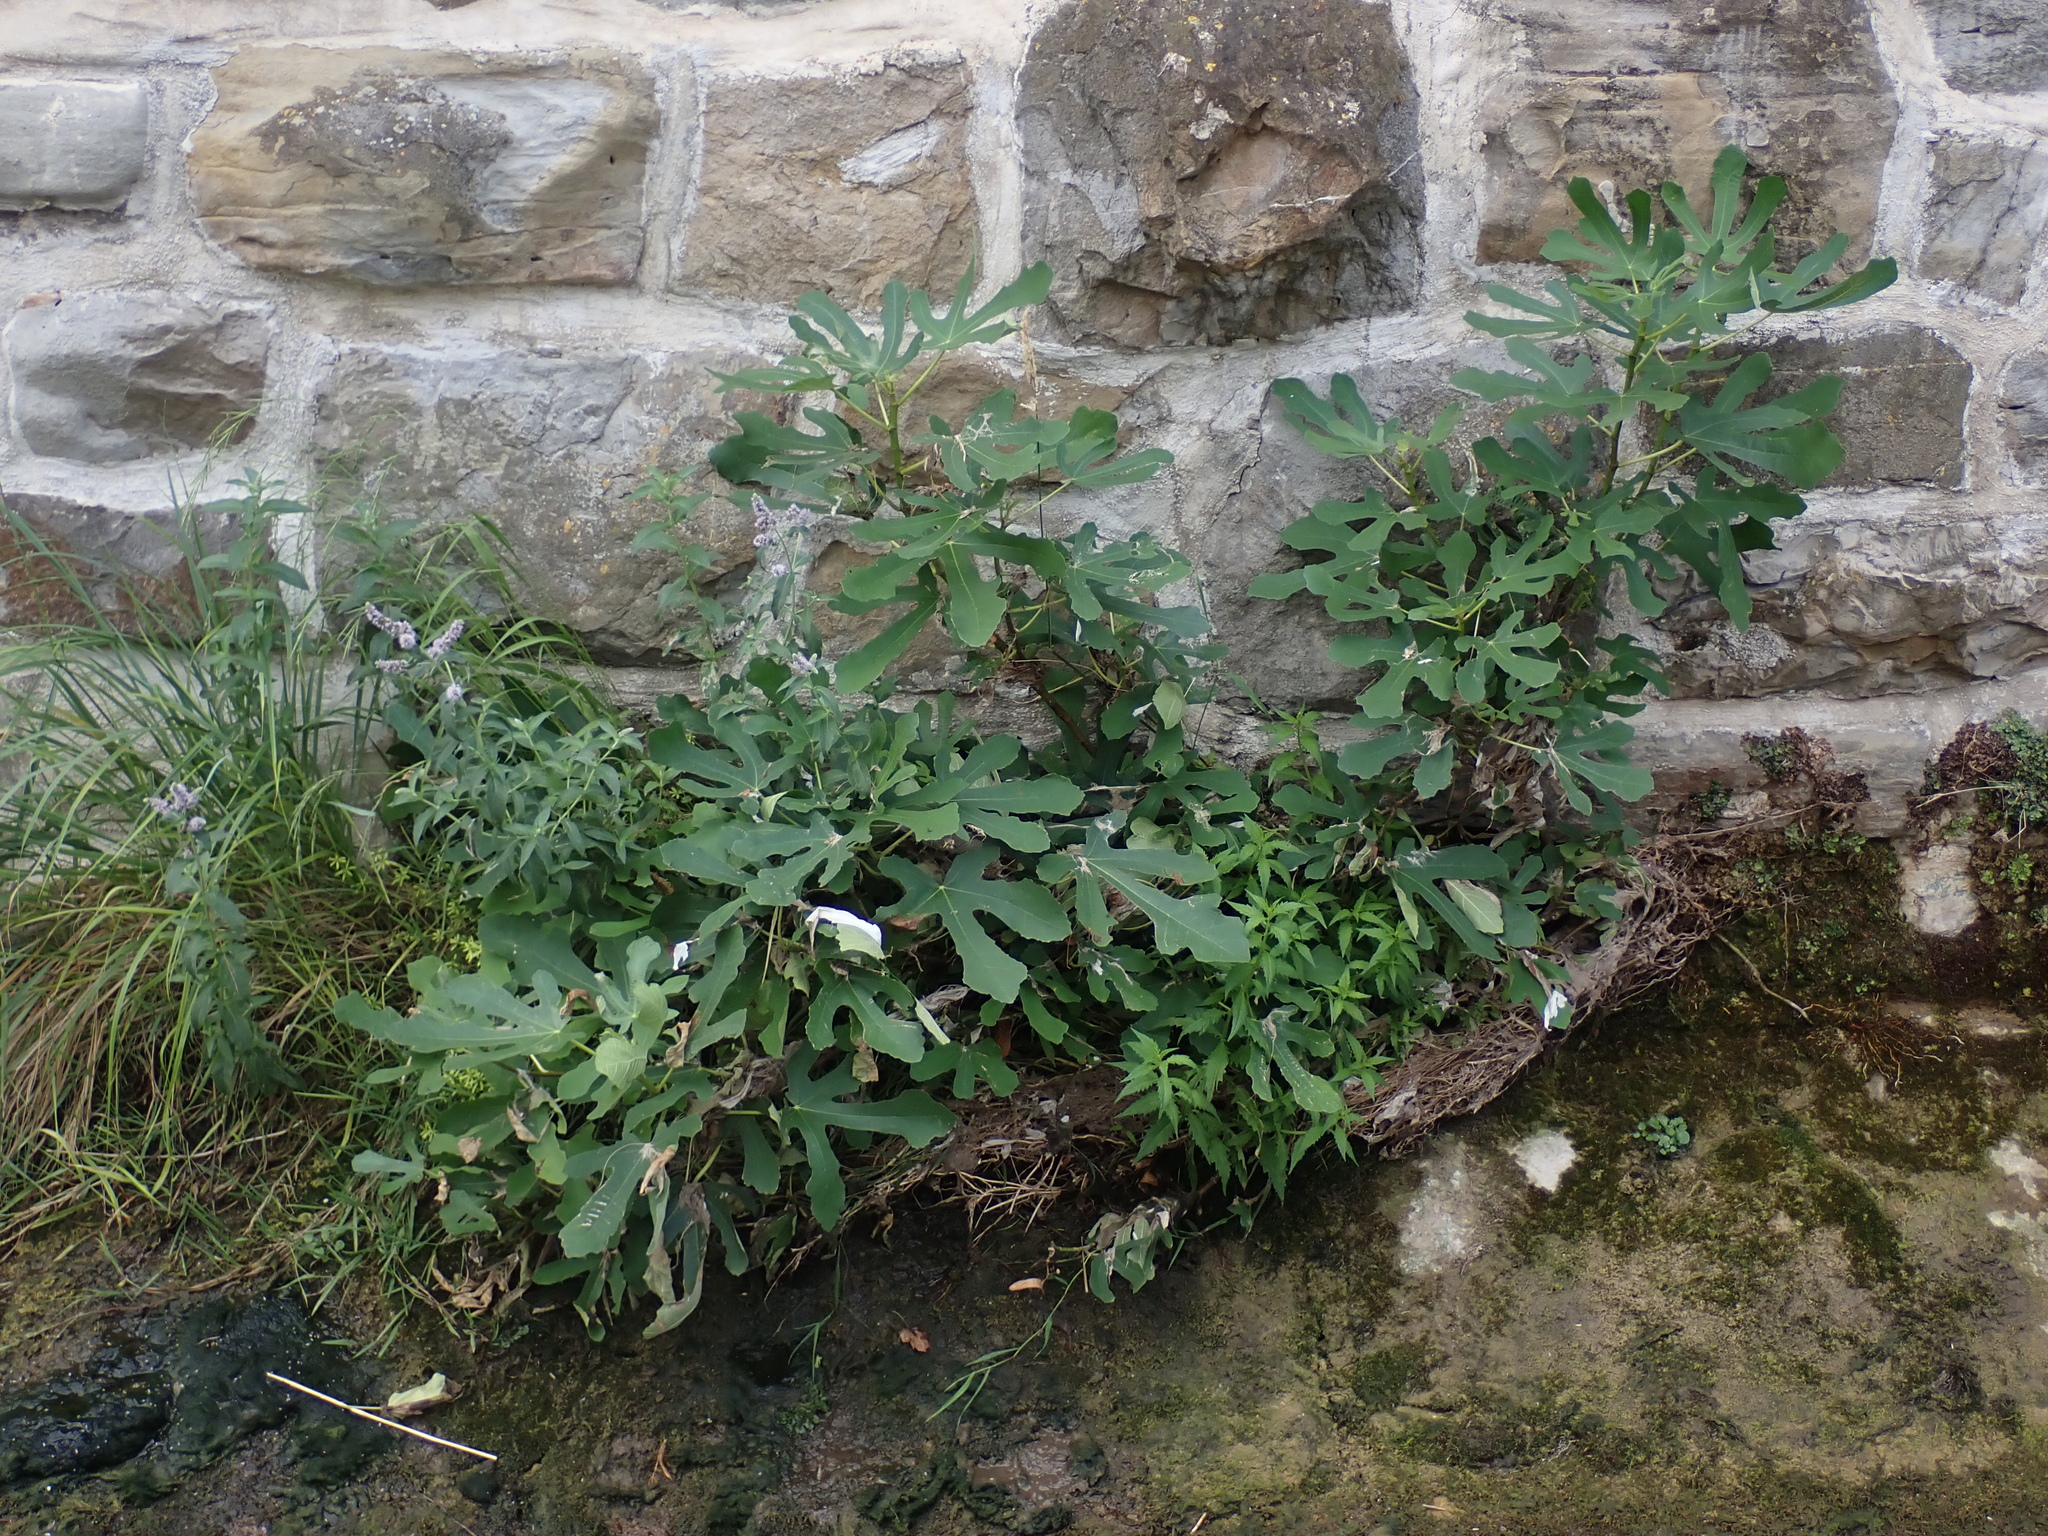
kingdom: Plantae
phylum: Tracheophyta
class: Magnoliopsida
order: Rosales
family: Moraceae
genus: Ficus
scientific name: Ficus carica
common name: Fig
